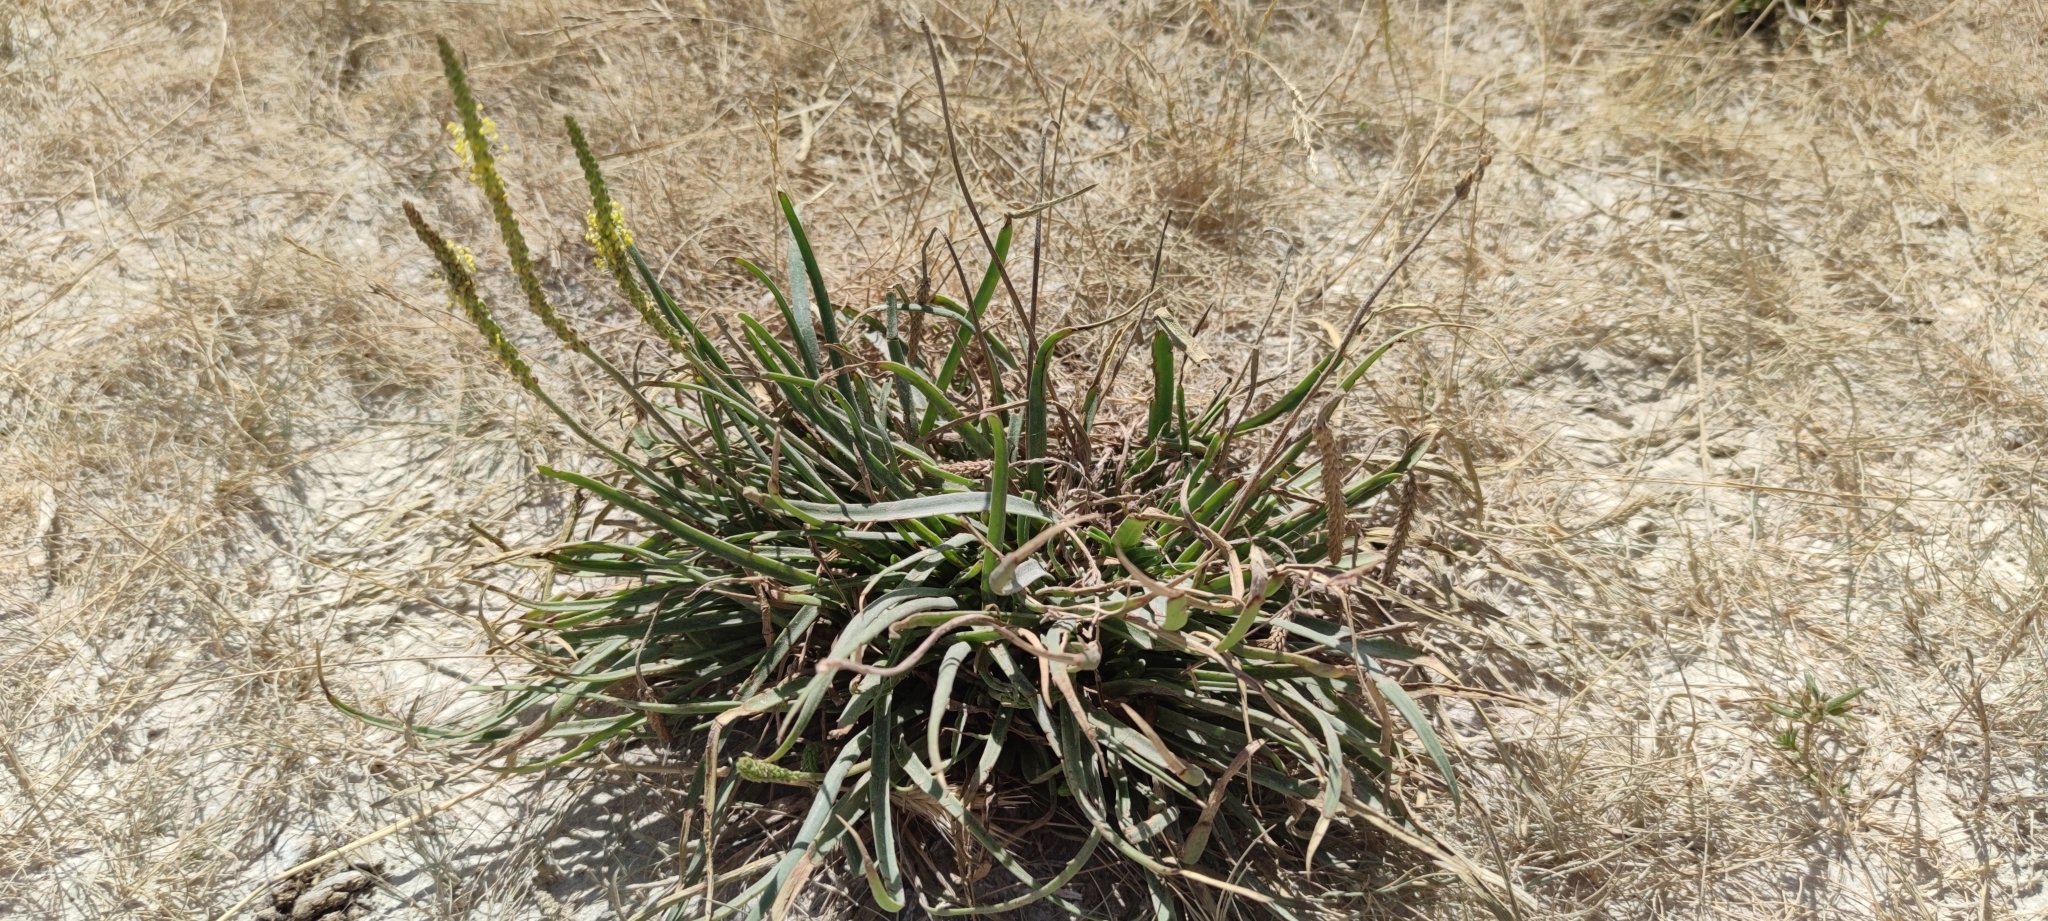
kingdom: Plantae
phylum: Tracheophyta
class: Magnoliopsida
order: Lamiales
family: Plantaginaceae
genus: Plantago
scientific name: Plantago maritima
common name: Sea plantain
